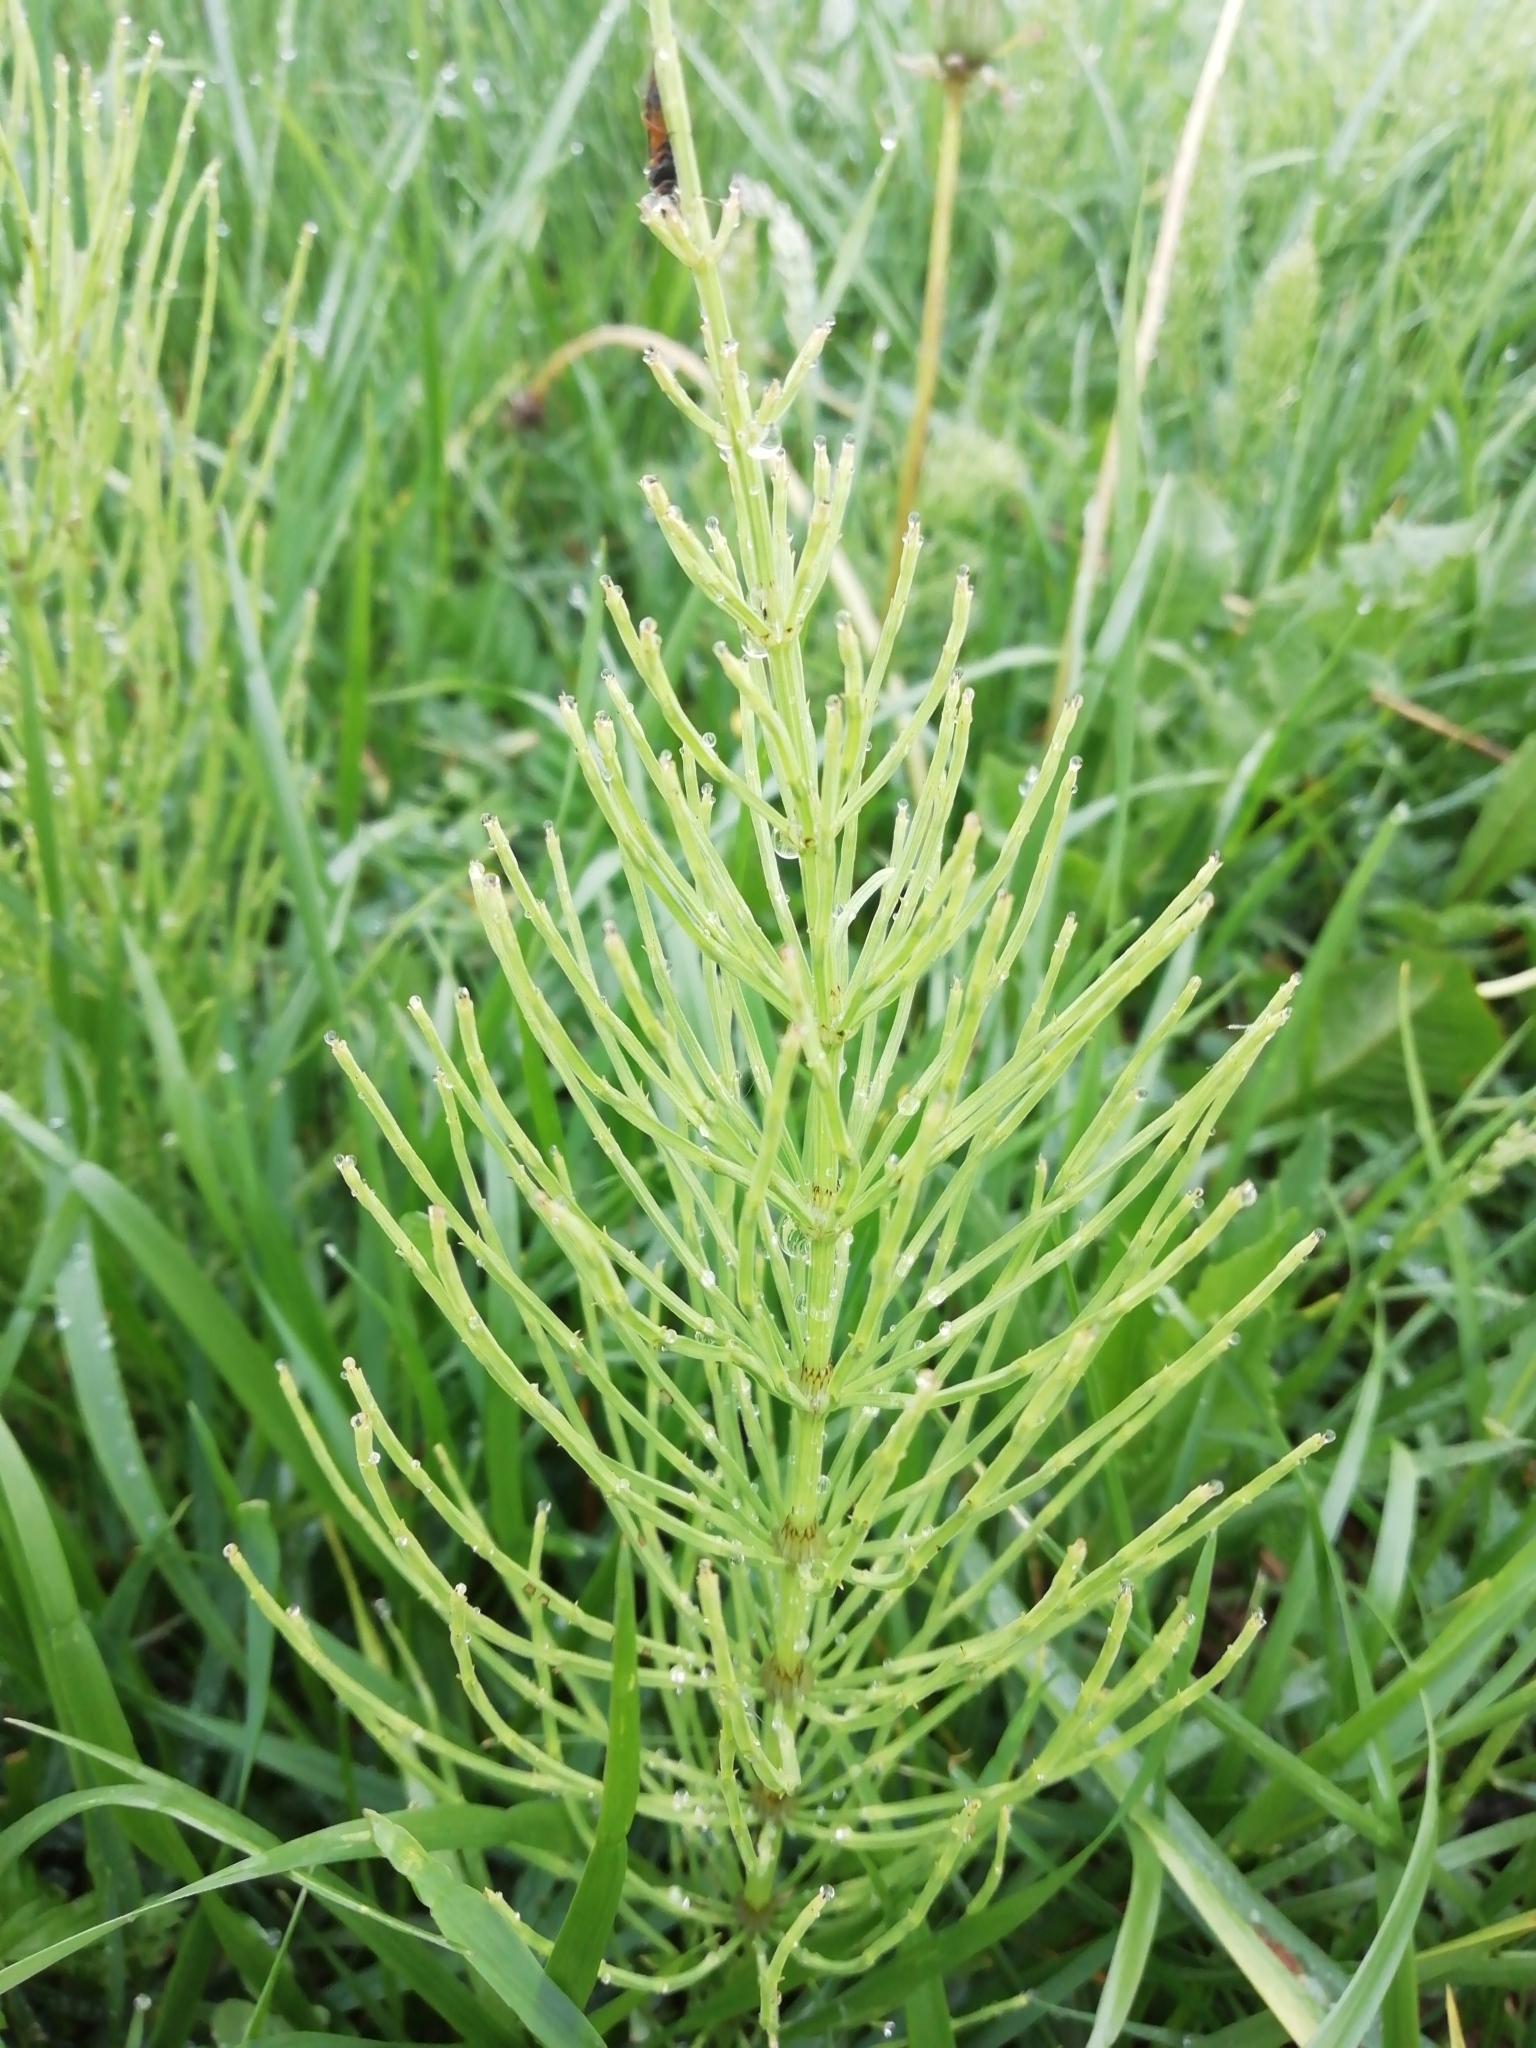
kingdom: Plantae
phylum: Tracheophyta
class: Polypodiopsida
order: Equisetales
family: Equisetaceae
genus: Equisetum
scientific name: Equisetum arvense
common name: Field horsetail
